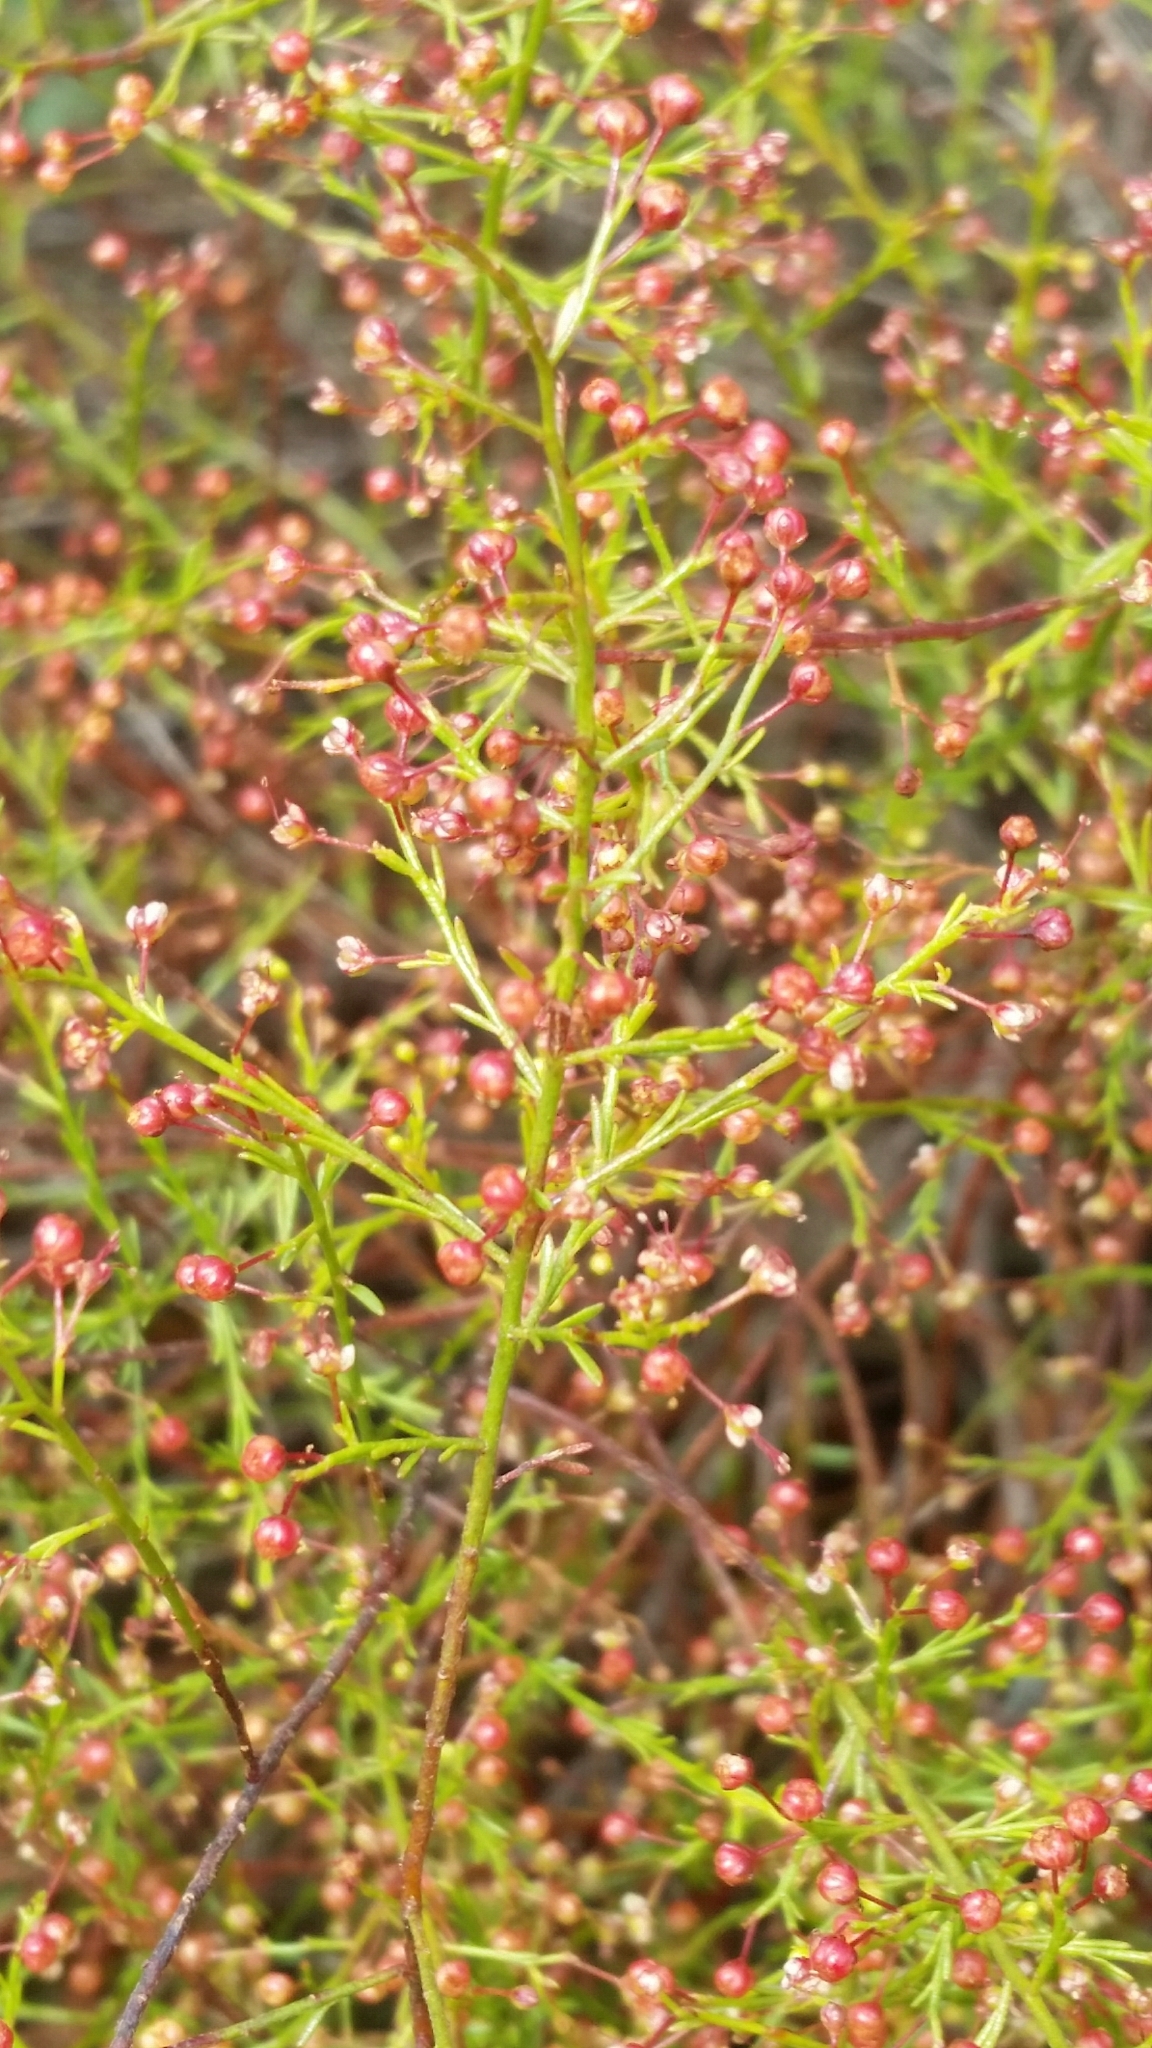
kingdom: Plantae
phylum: Tracheophyta
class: Magnoliopsida
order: Malvales
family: Cistaceae
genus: Lechea
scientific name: Lechea deckertii
